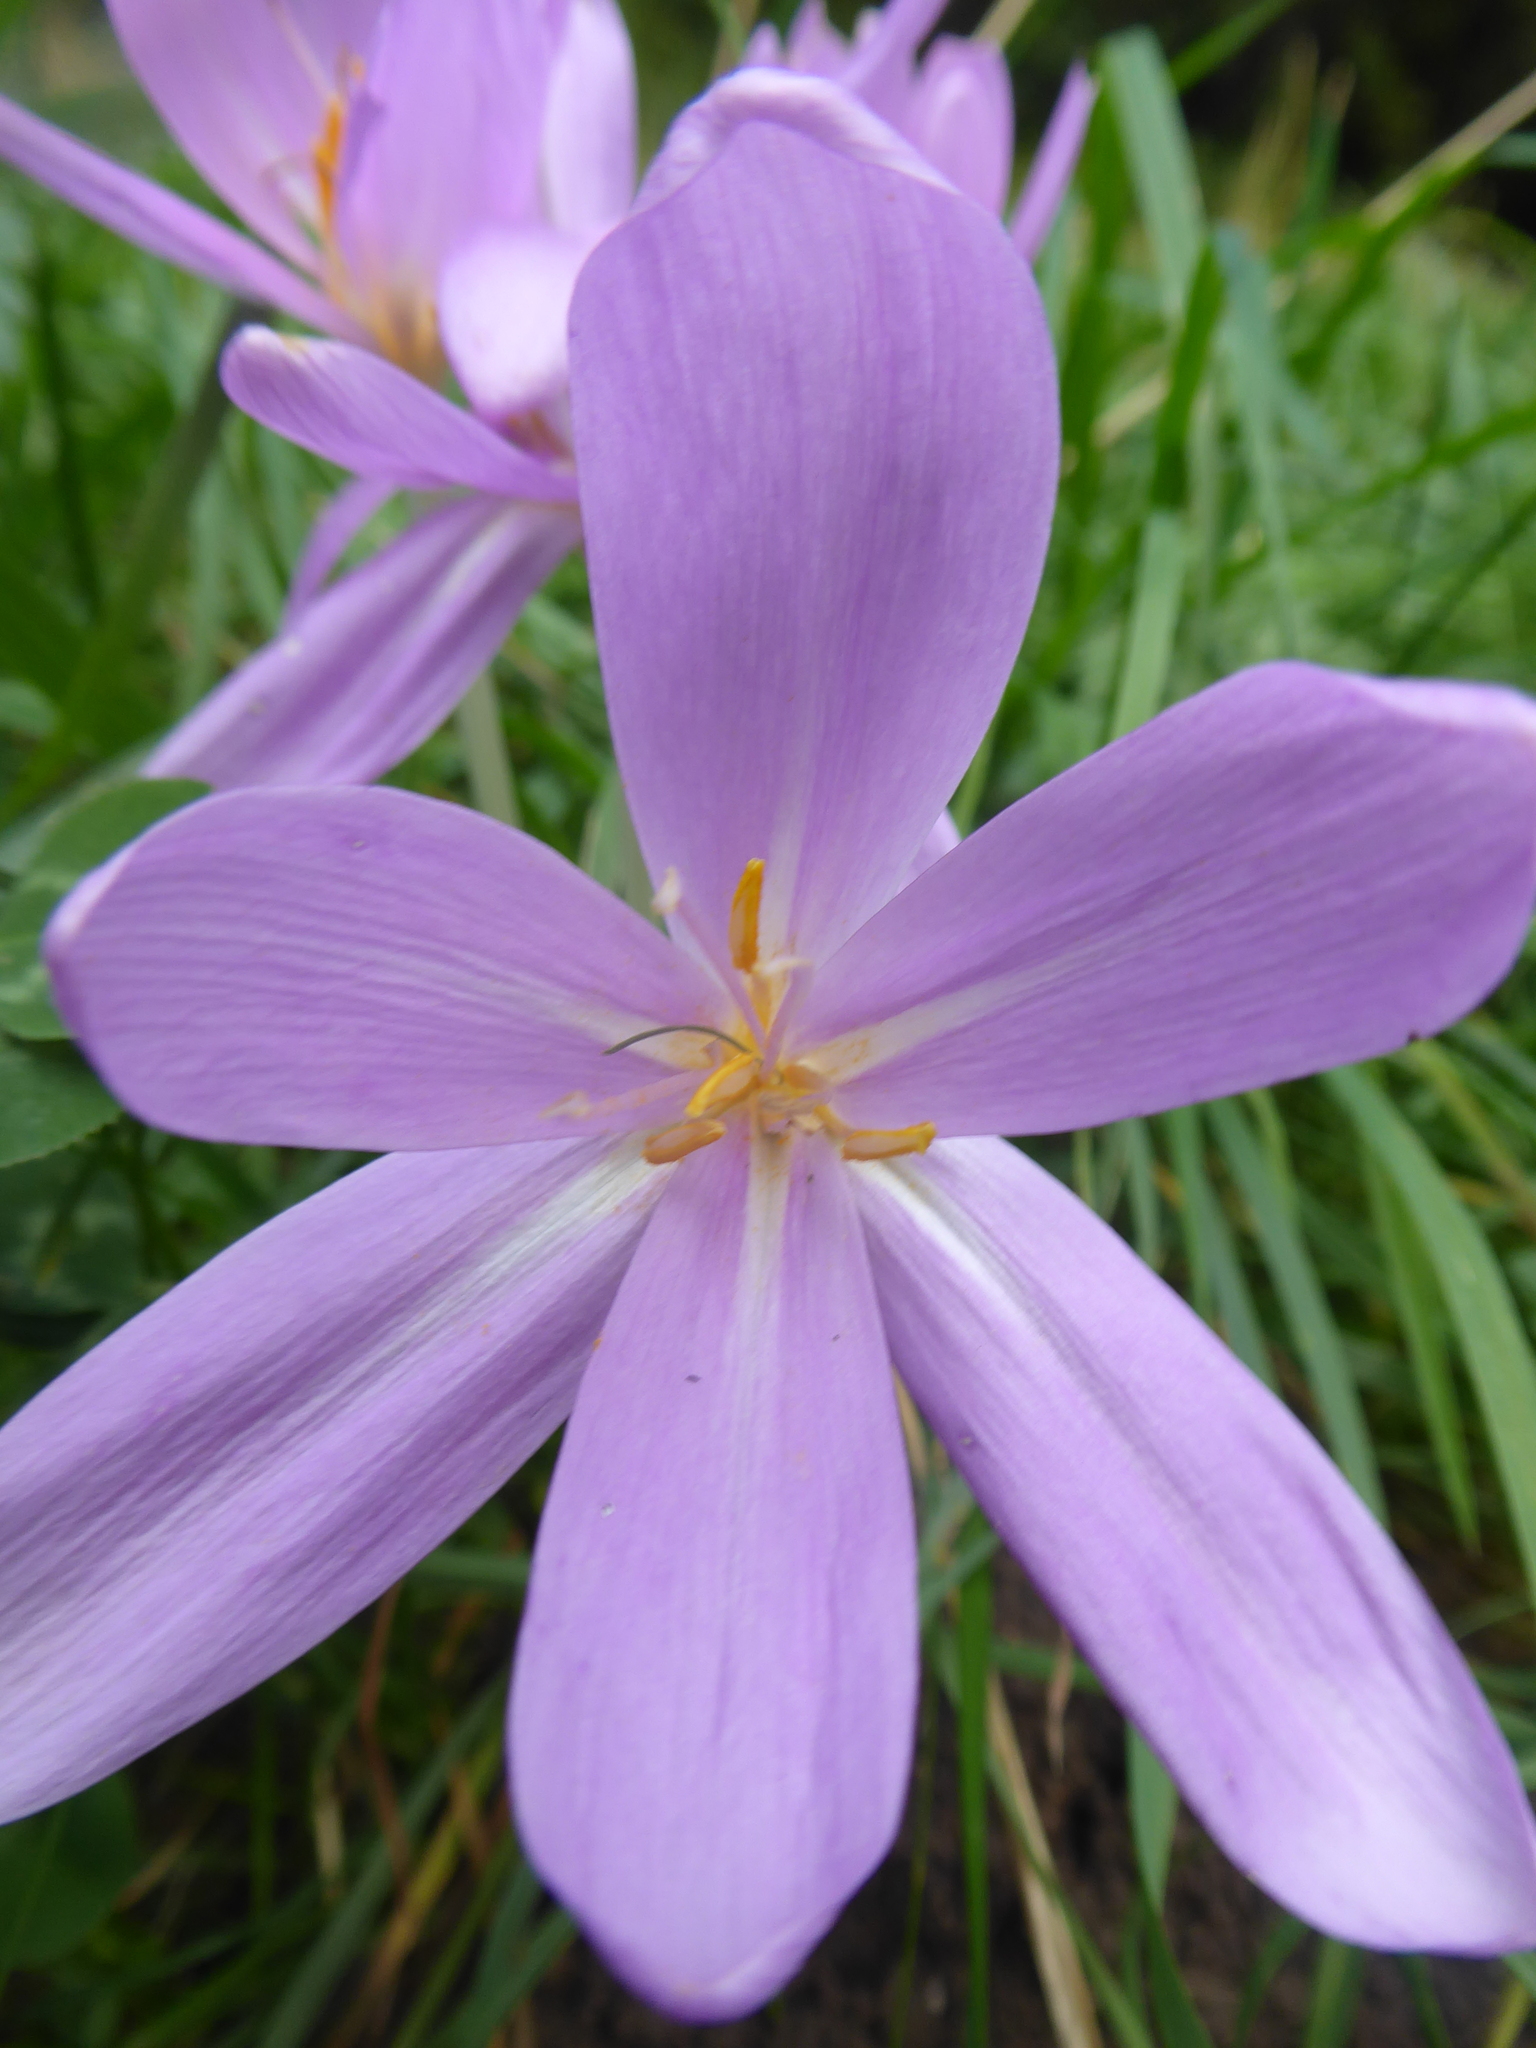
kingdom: Plantae
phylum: Tracheophyta
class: Liliopsida
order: Liliales
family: Colchicaceae
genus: Colchicum
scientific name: Colchicum autumnale
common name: Autumn crocus
